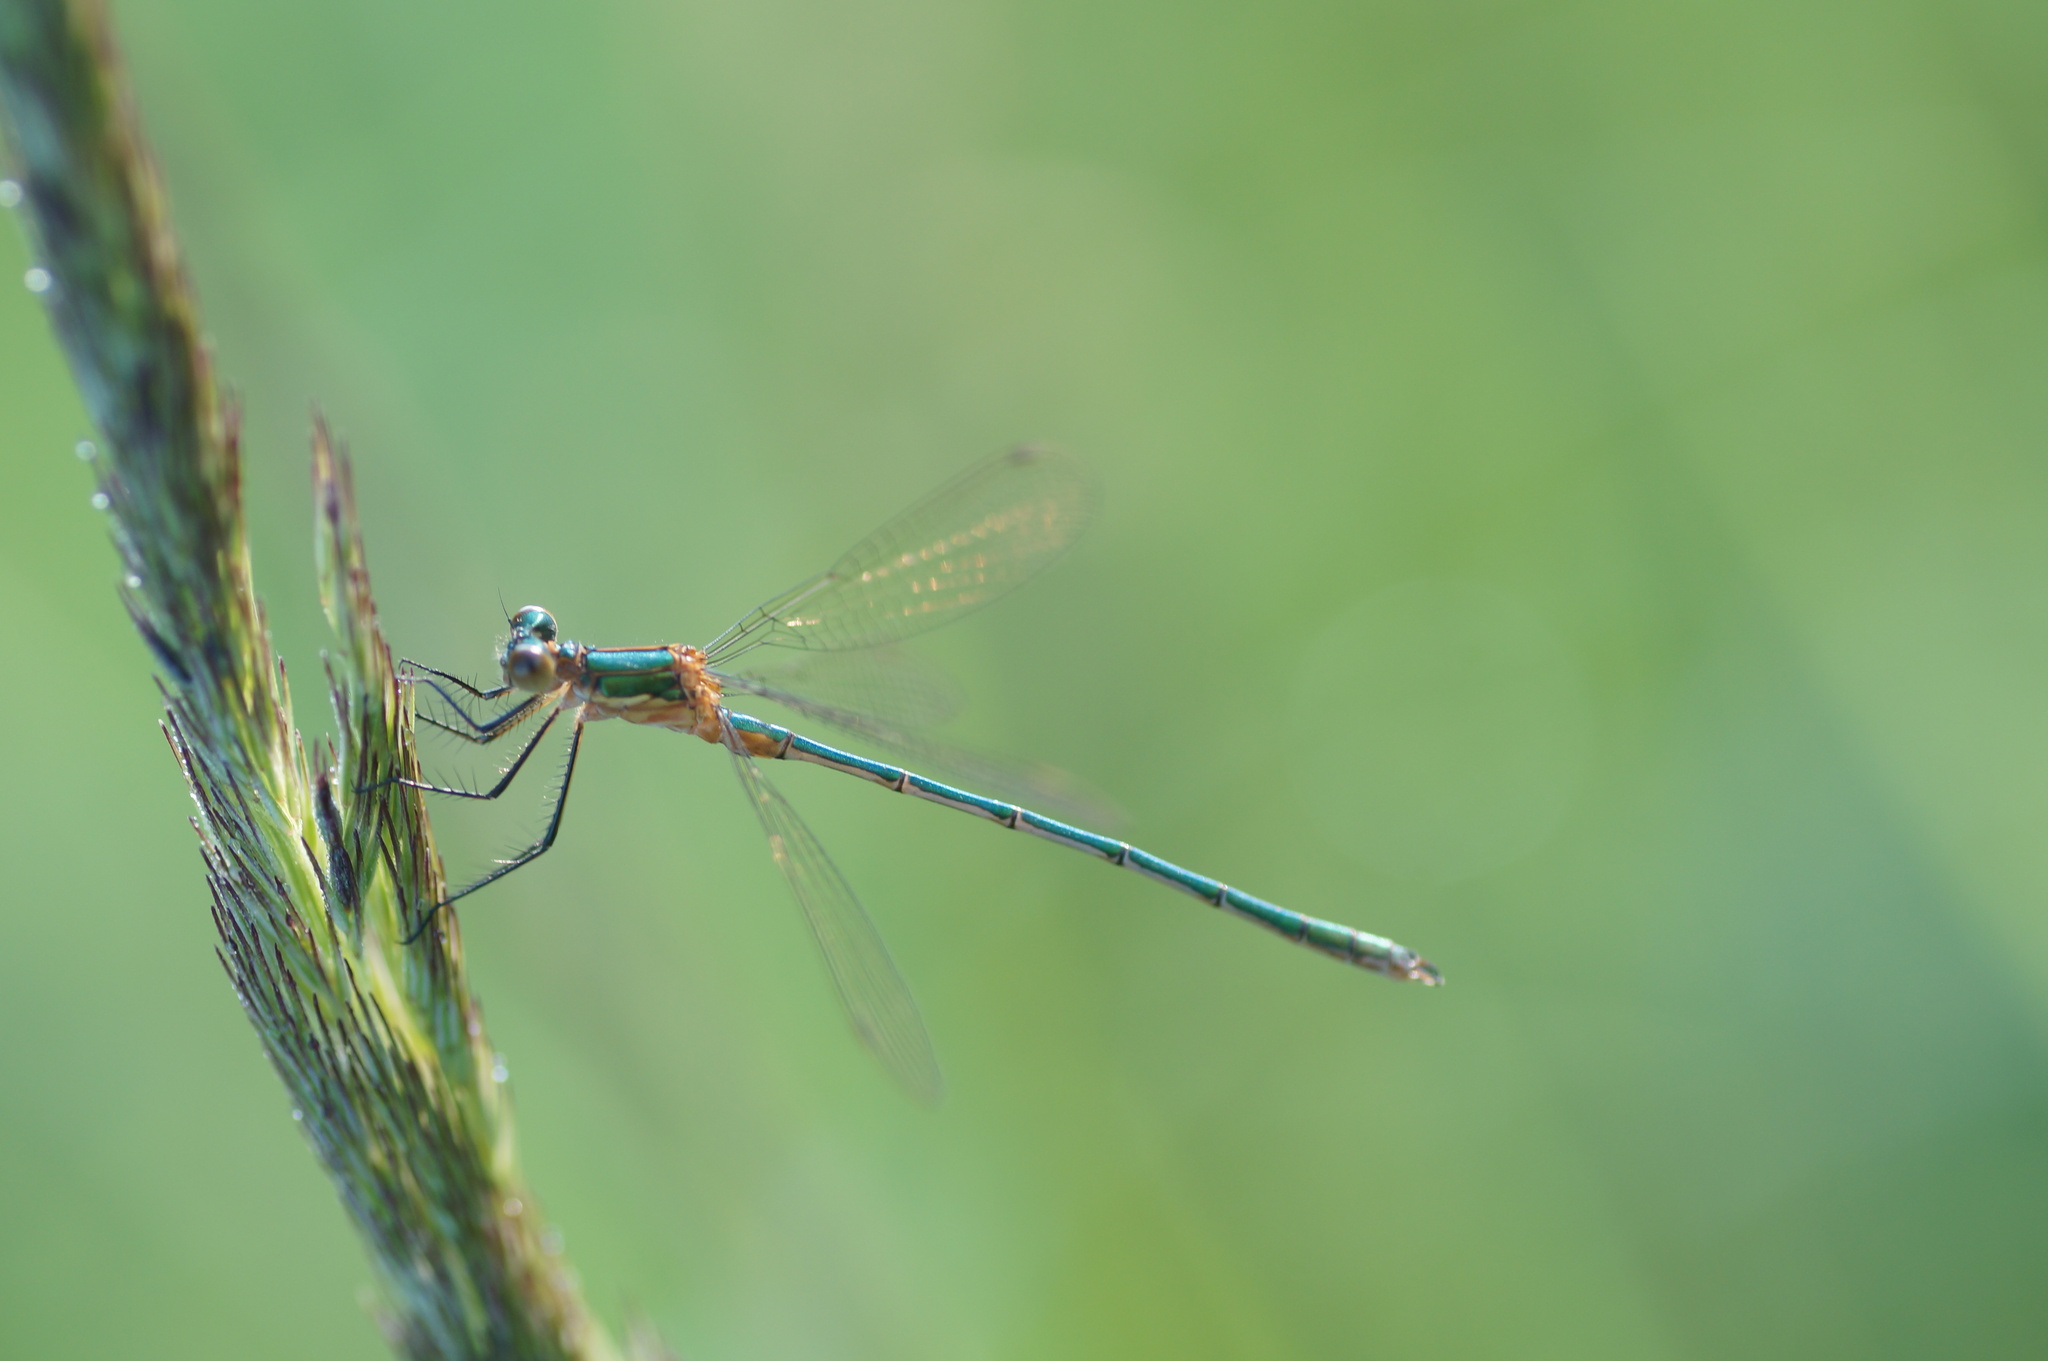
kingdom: Animalia
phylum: Arthropoda
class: Insecta
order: Odonata
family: Lestidae
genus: Lestes
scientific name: Lestes sponsa
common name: Common spreadwing
